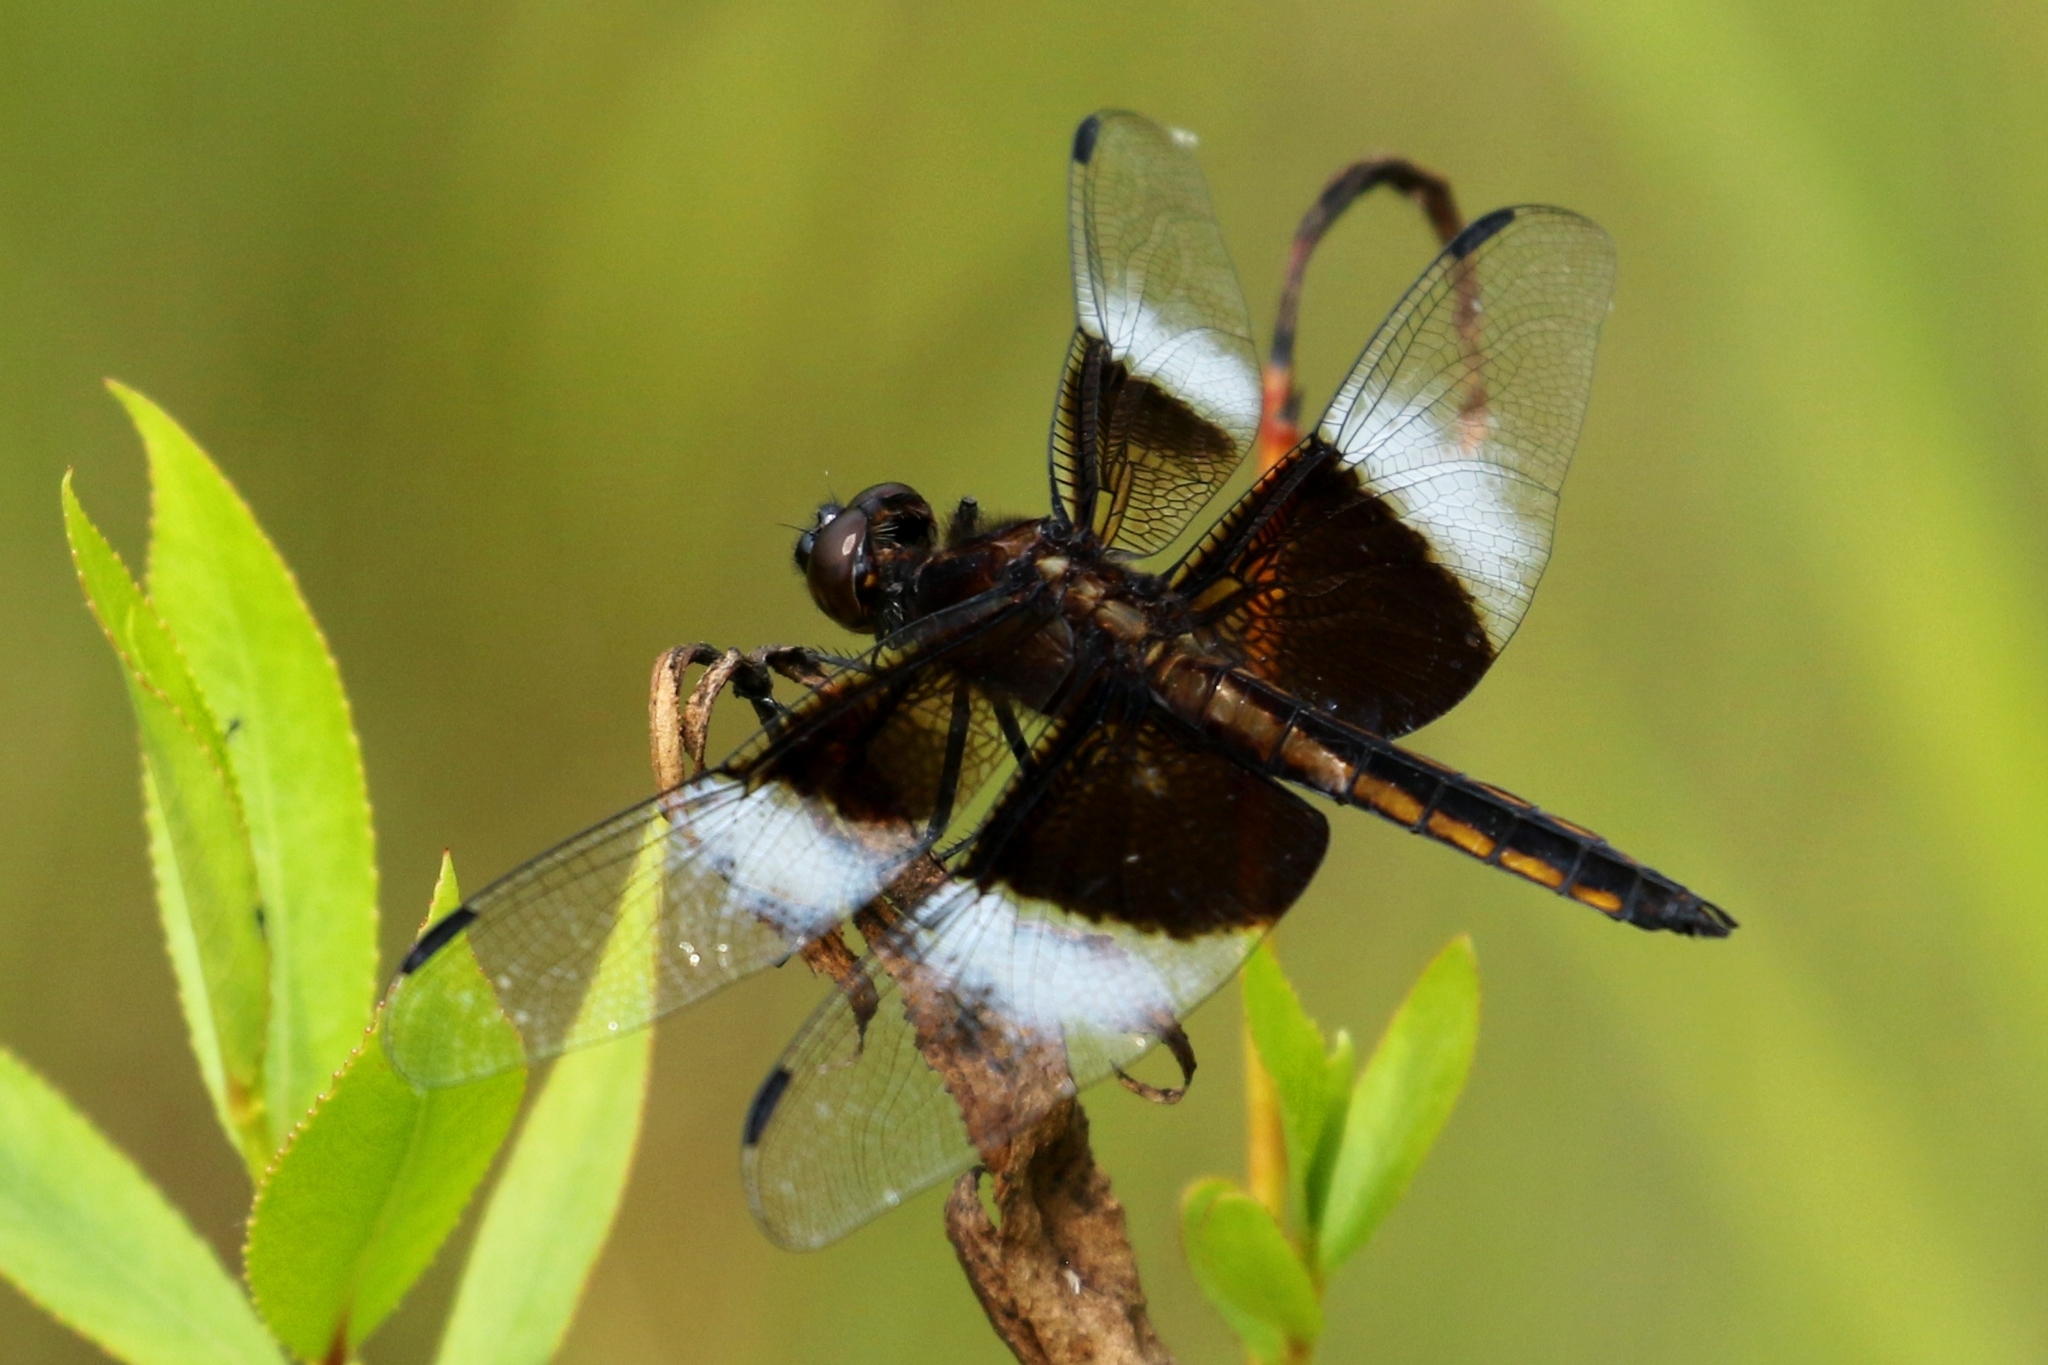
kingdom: Animalia
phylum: Arthropoda
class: Insecta
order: Odonata
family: Libellulidae
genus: Libellula
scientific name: Libellula luctuosa
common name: Widow skimmer
